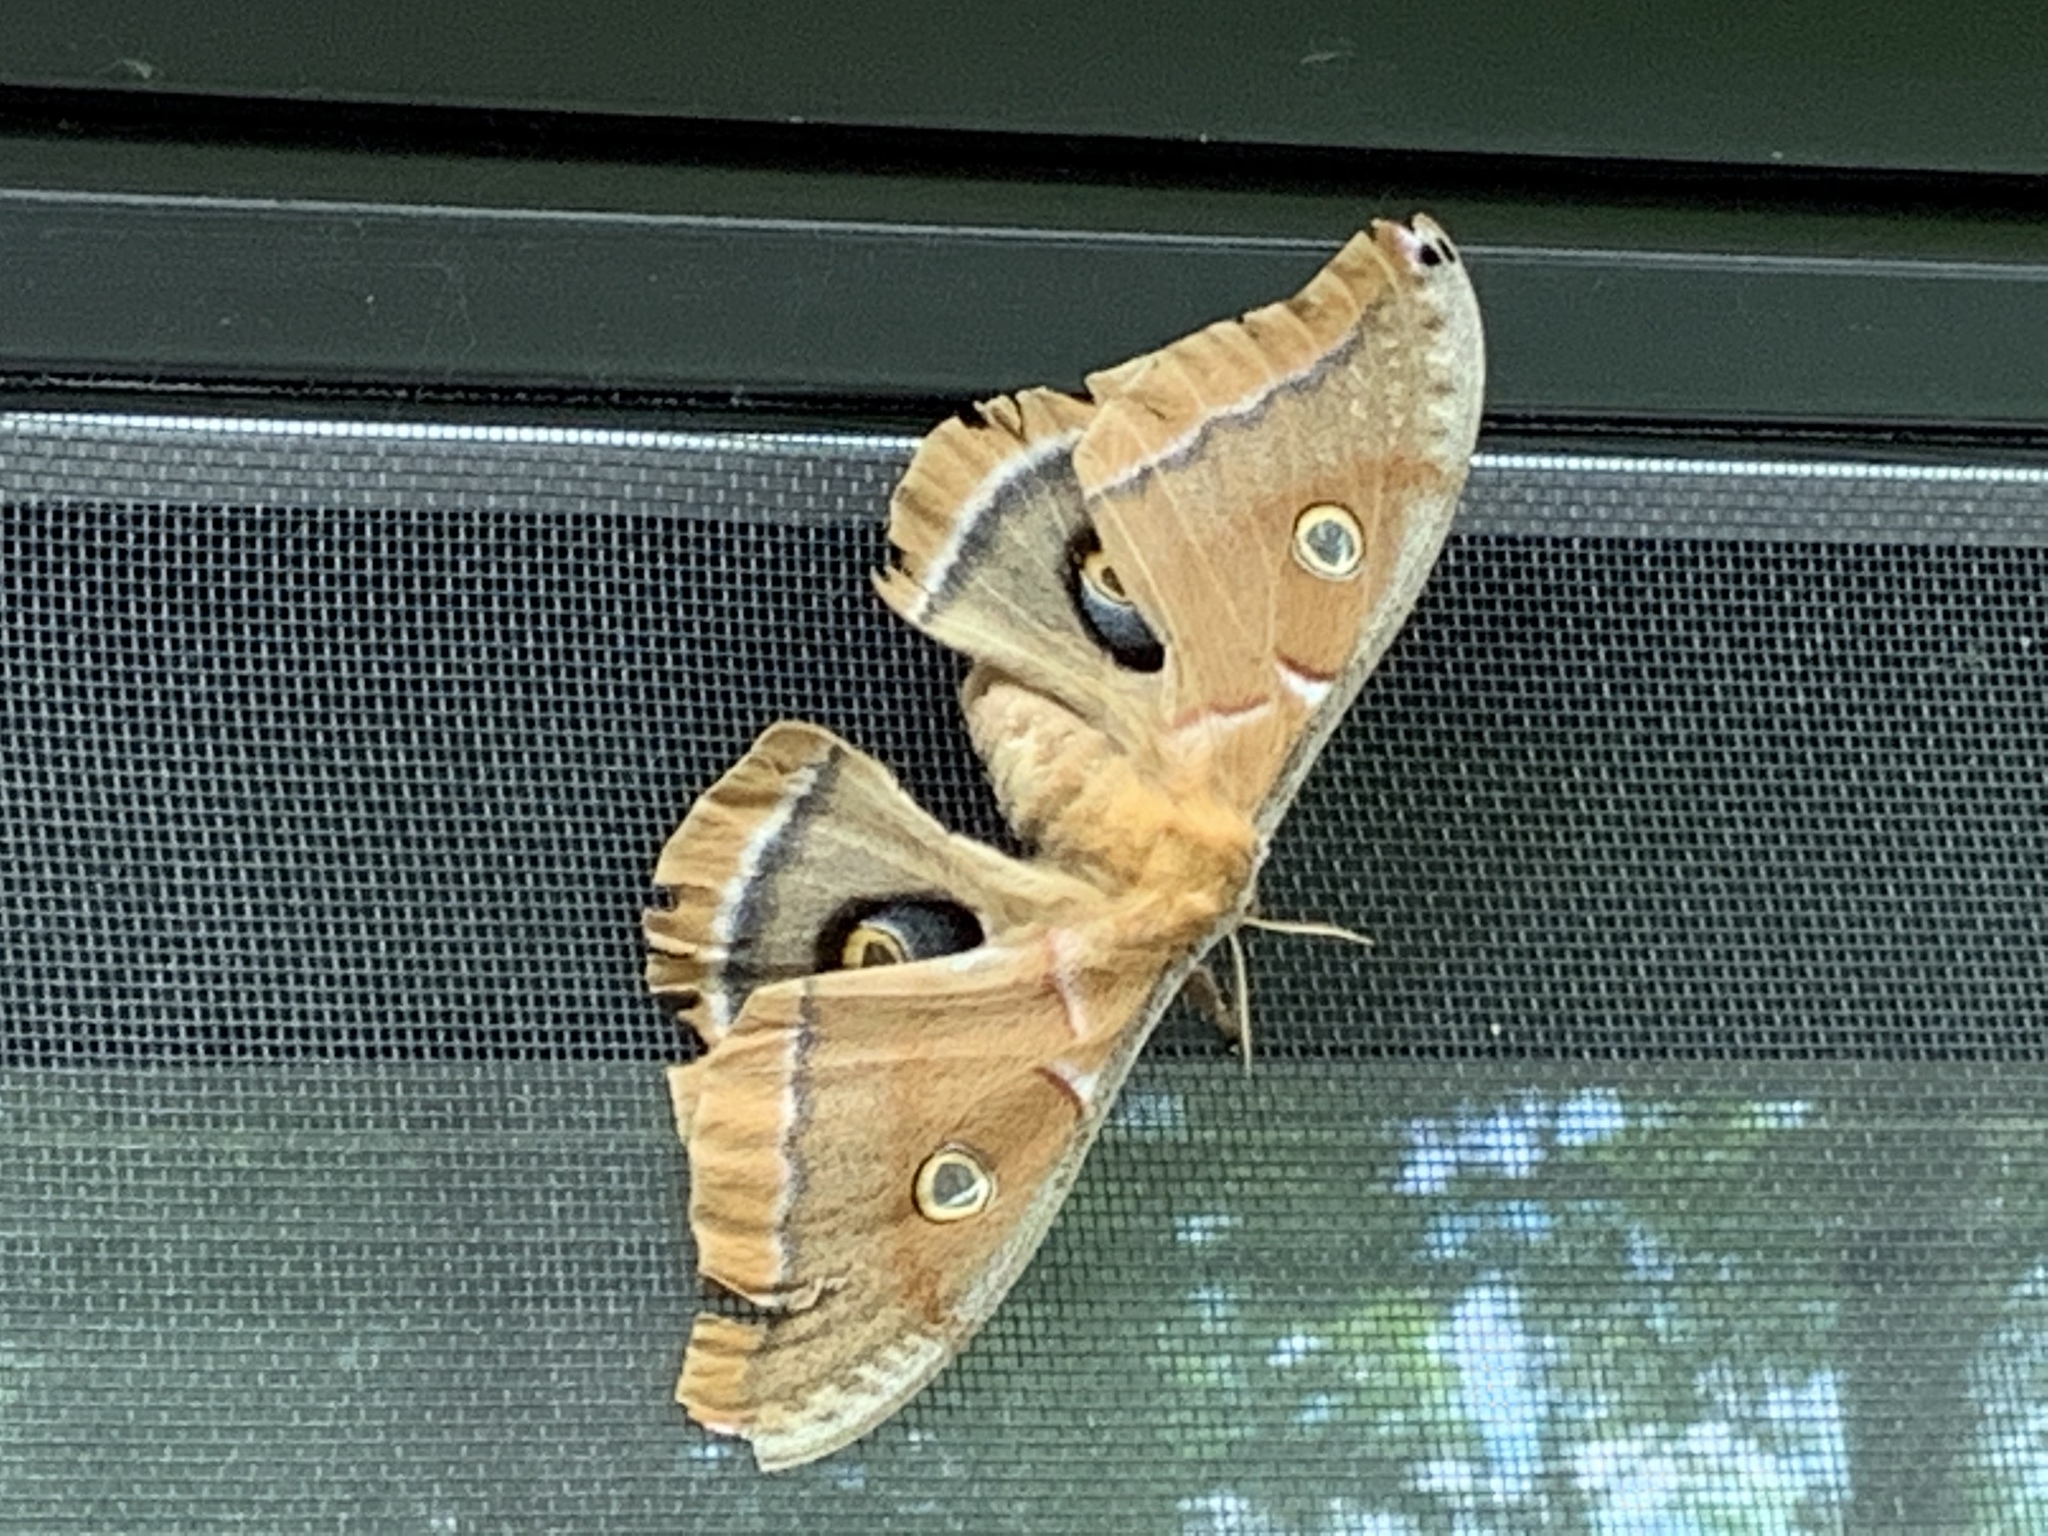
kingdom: Animalia
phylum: Arthropoda
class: Insecta
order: Lepidoptera
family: Saturniidae
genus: Antheraea
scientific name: Antheraea polyphemus
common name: Polyphemus moth
